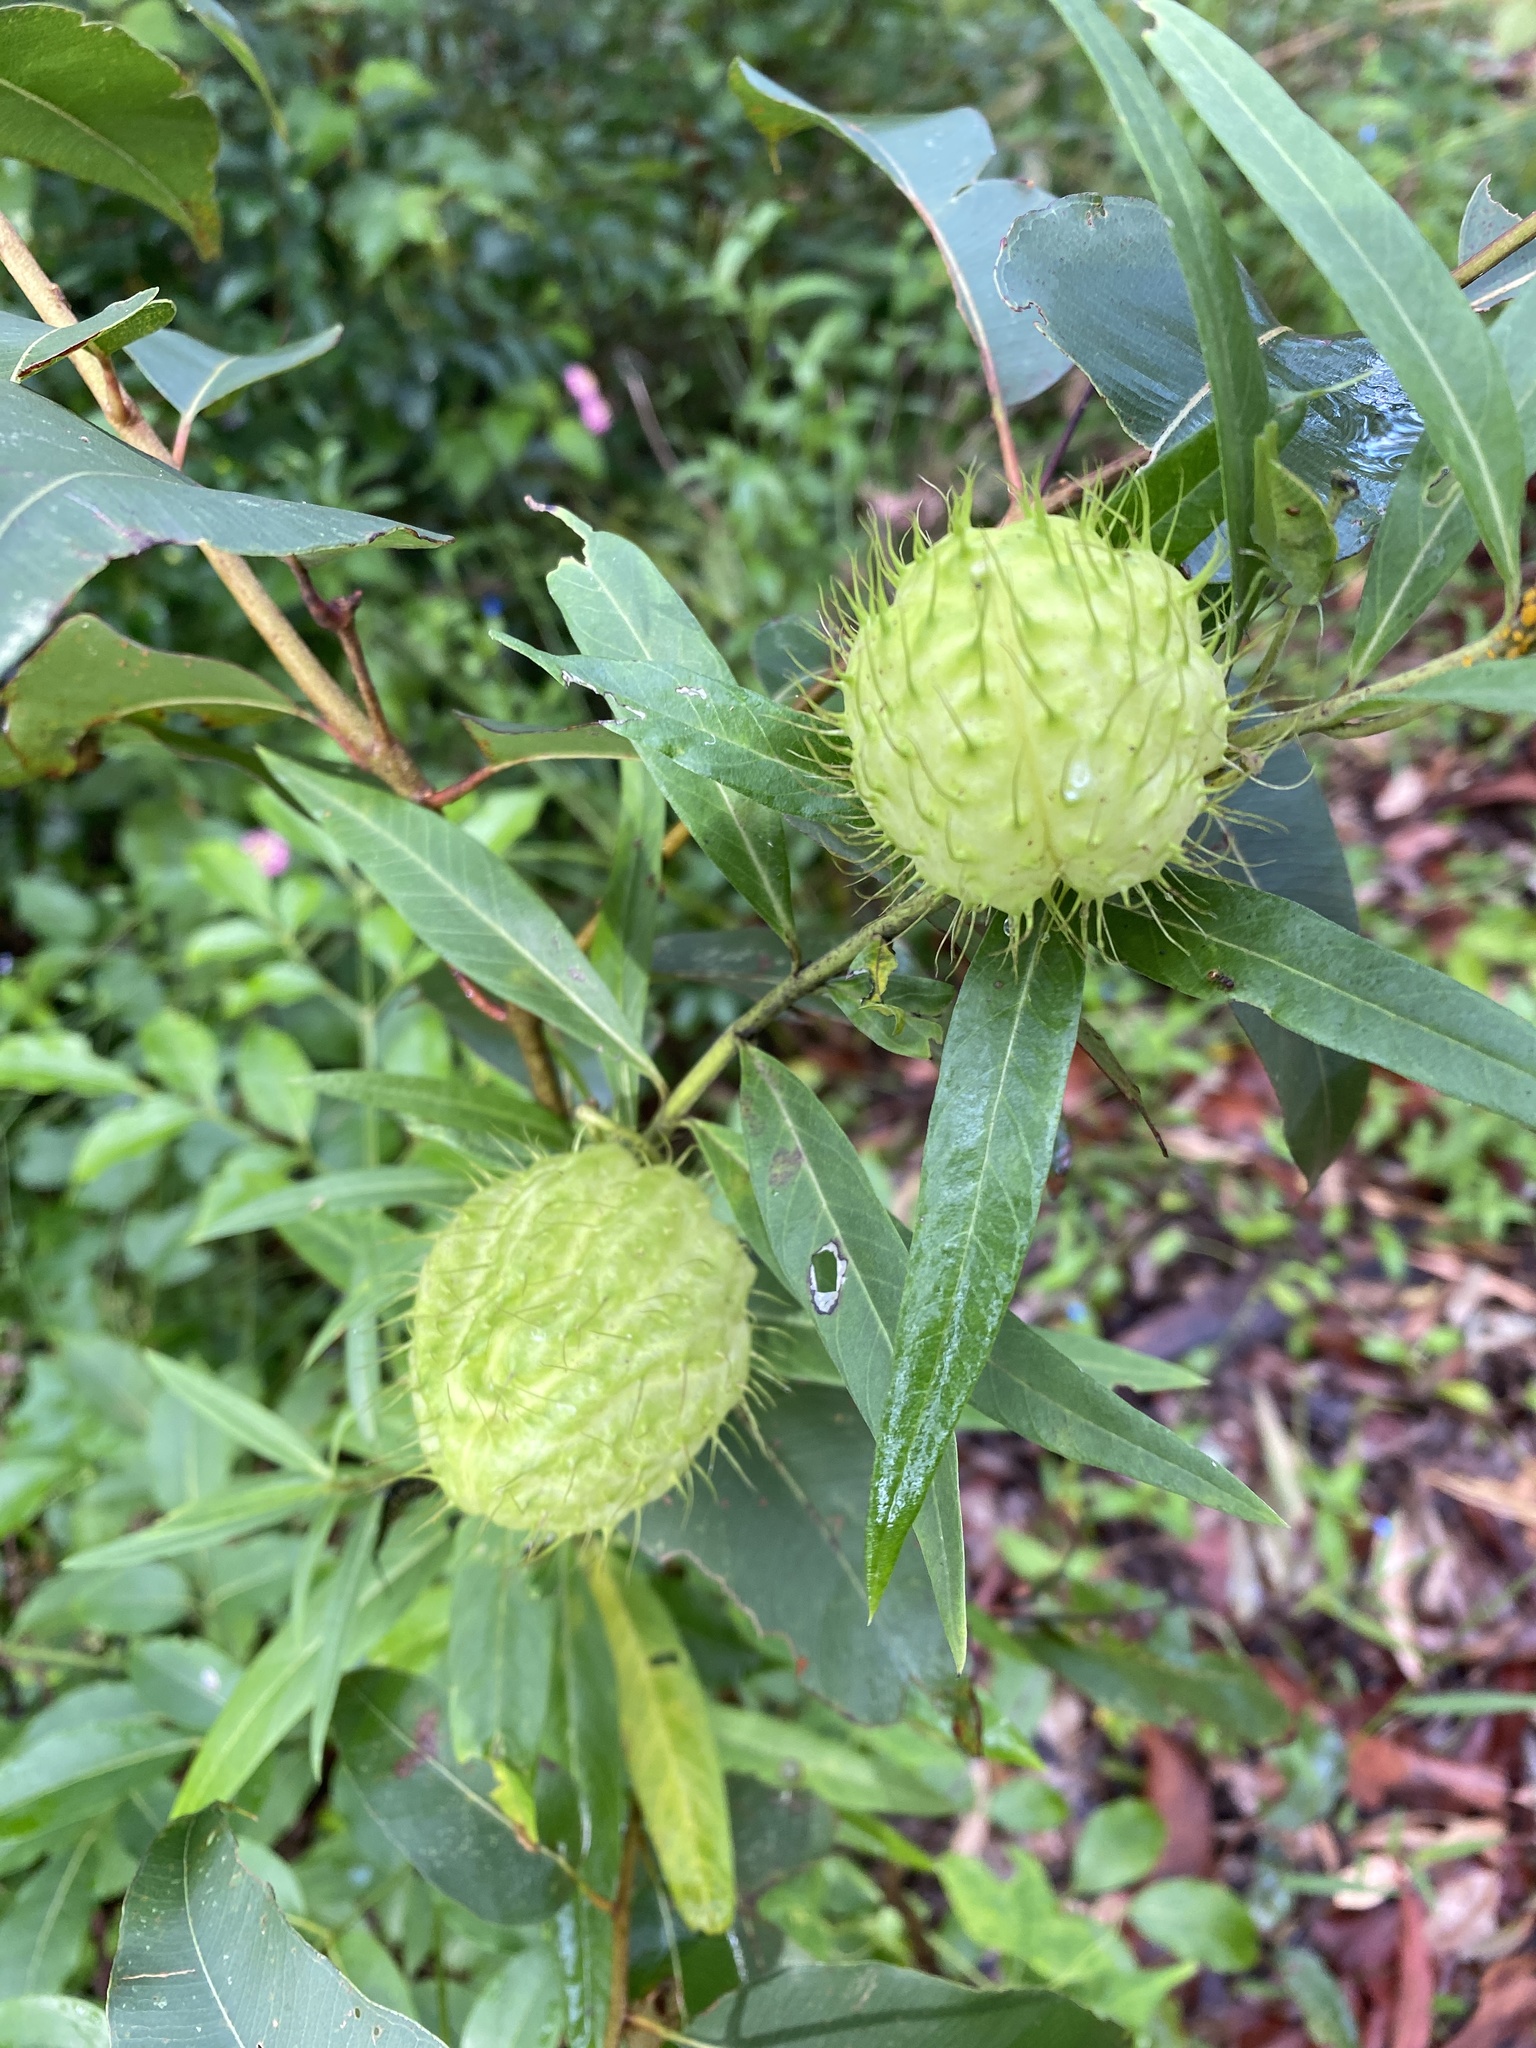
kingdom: Plantae
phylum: Tracheophyta
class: Magnoliopsida
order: Gentianales
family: Apocynaceae
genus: Gomphocarpus
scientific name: Gomphocarpus physocarpus
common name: Balloon cotton bush
